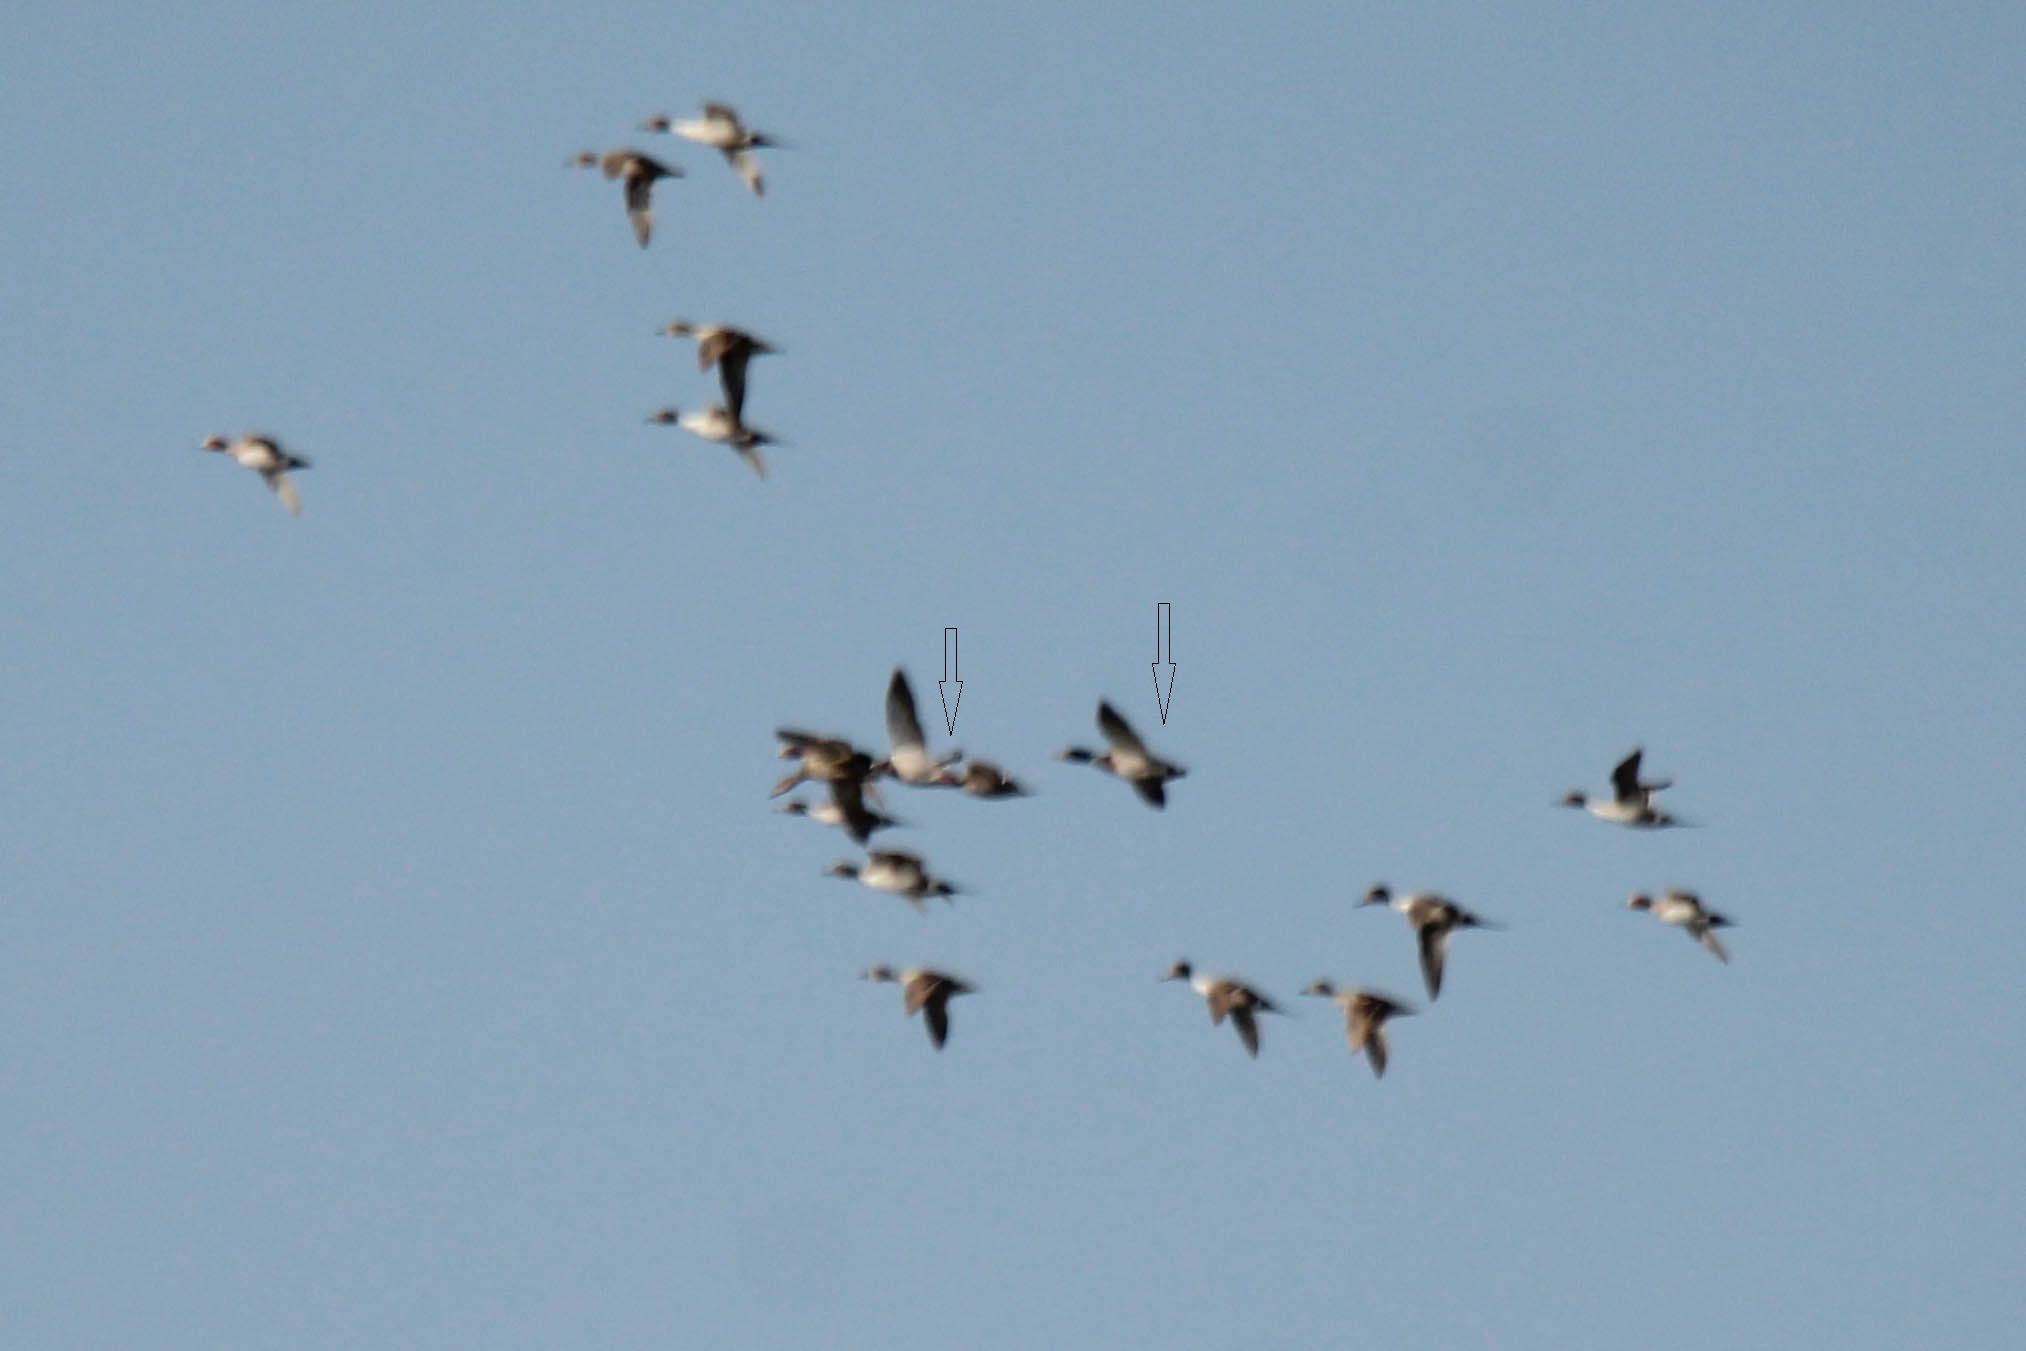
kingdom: Animalia
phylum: Chordata
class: Aves
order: Anseriformes
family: Anatidae
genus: Anas
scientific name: Anas platyrhynchos
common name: Mallard
